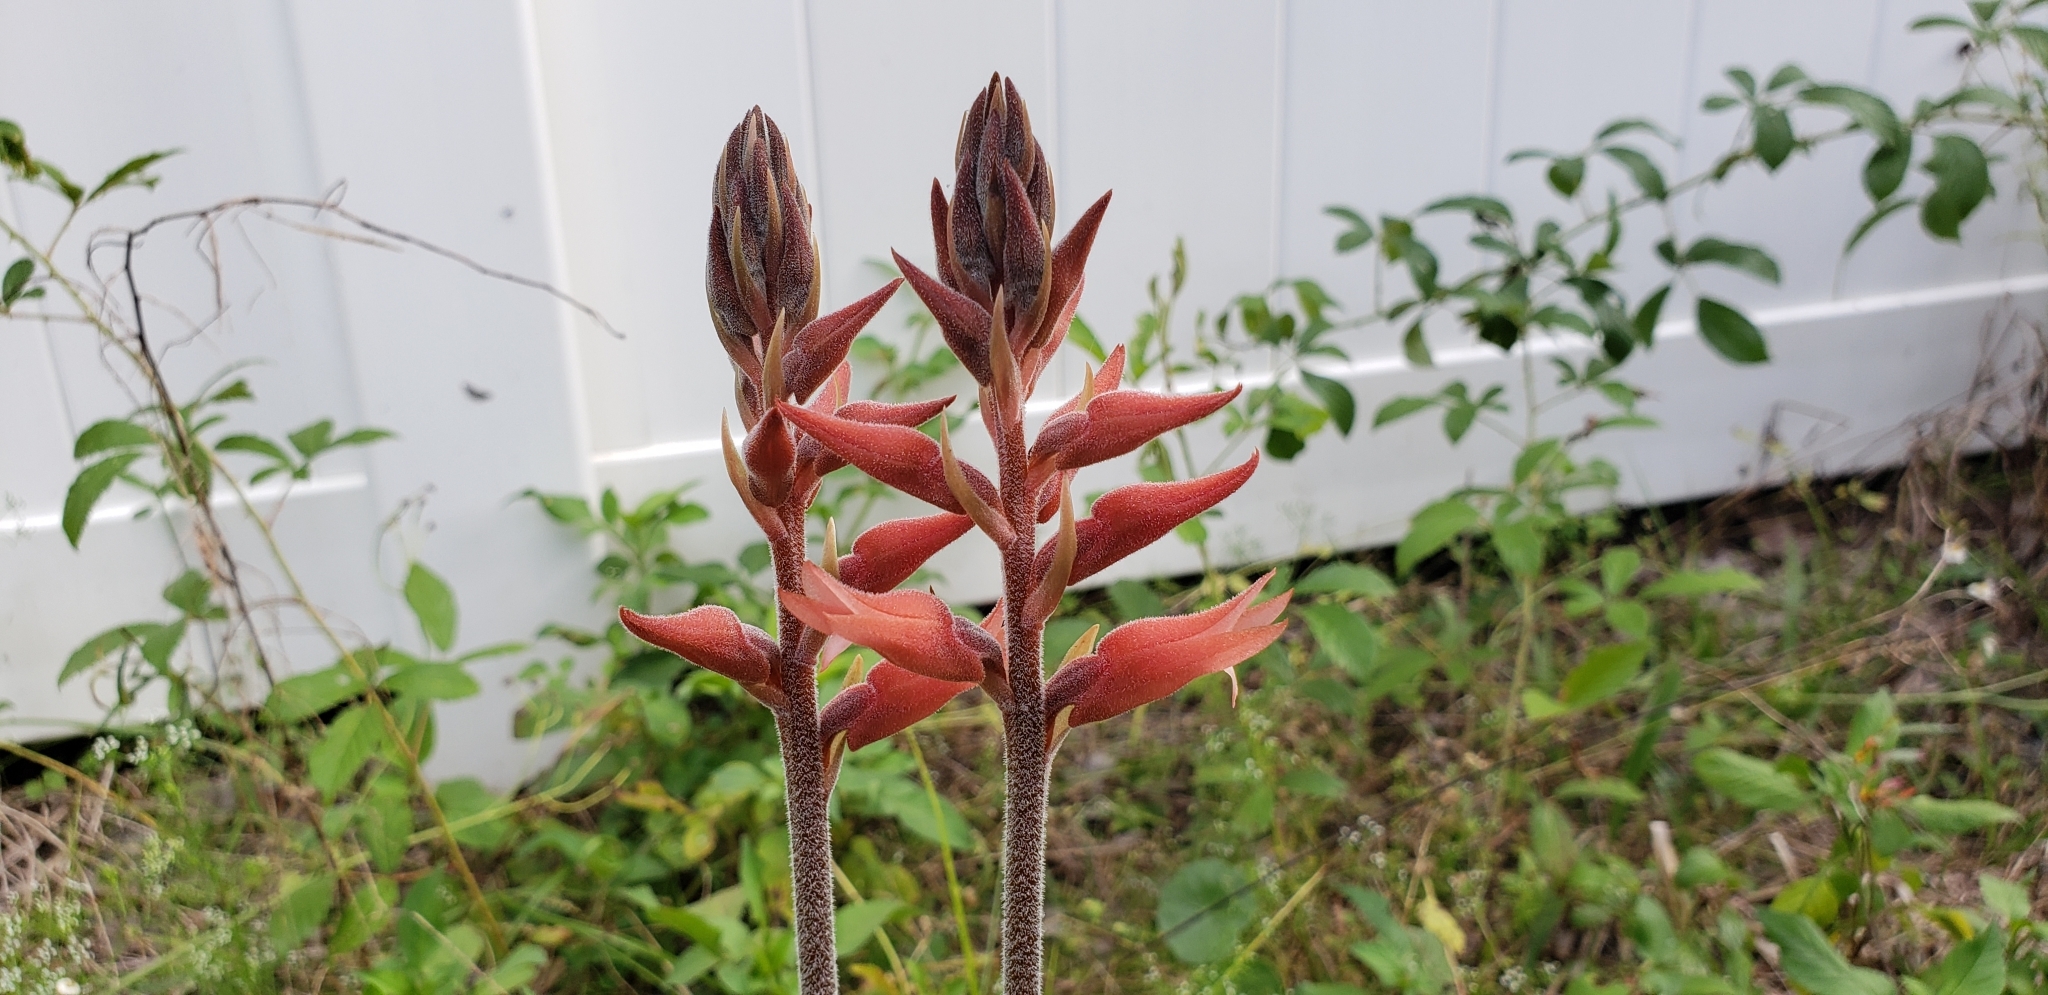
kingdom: Plantae
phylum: Tracheophyta
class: Liliopsida
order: Asparagales
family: Orchidaceae
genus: Sacoila
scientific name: Sacoila lanceolata
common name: Leafless beaked ladiestresses
